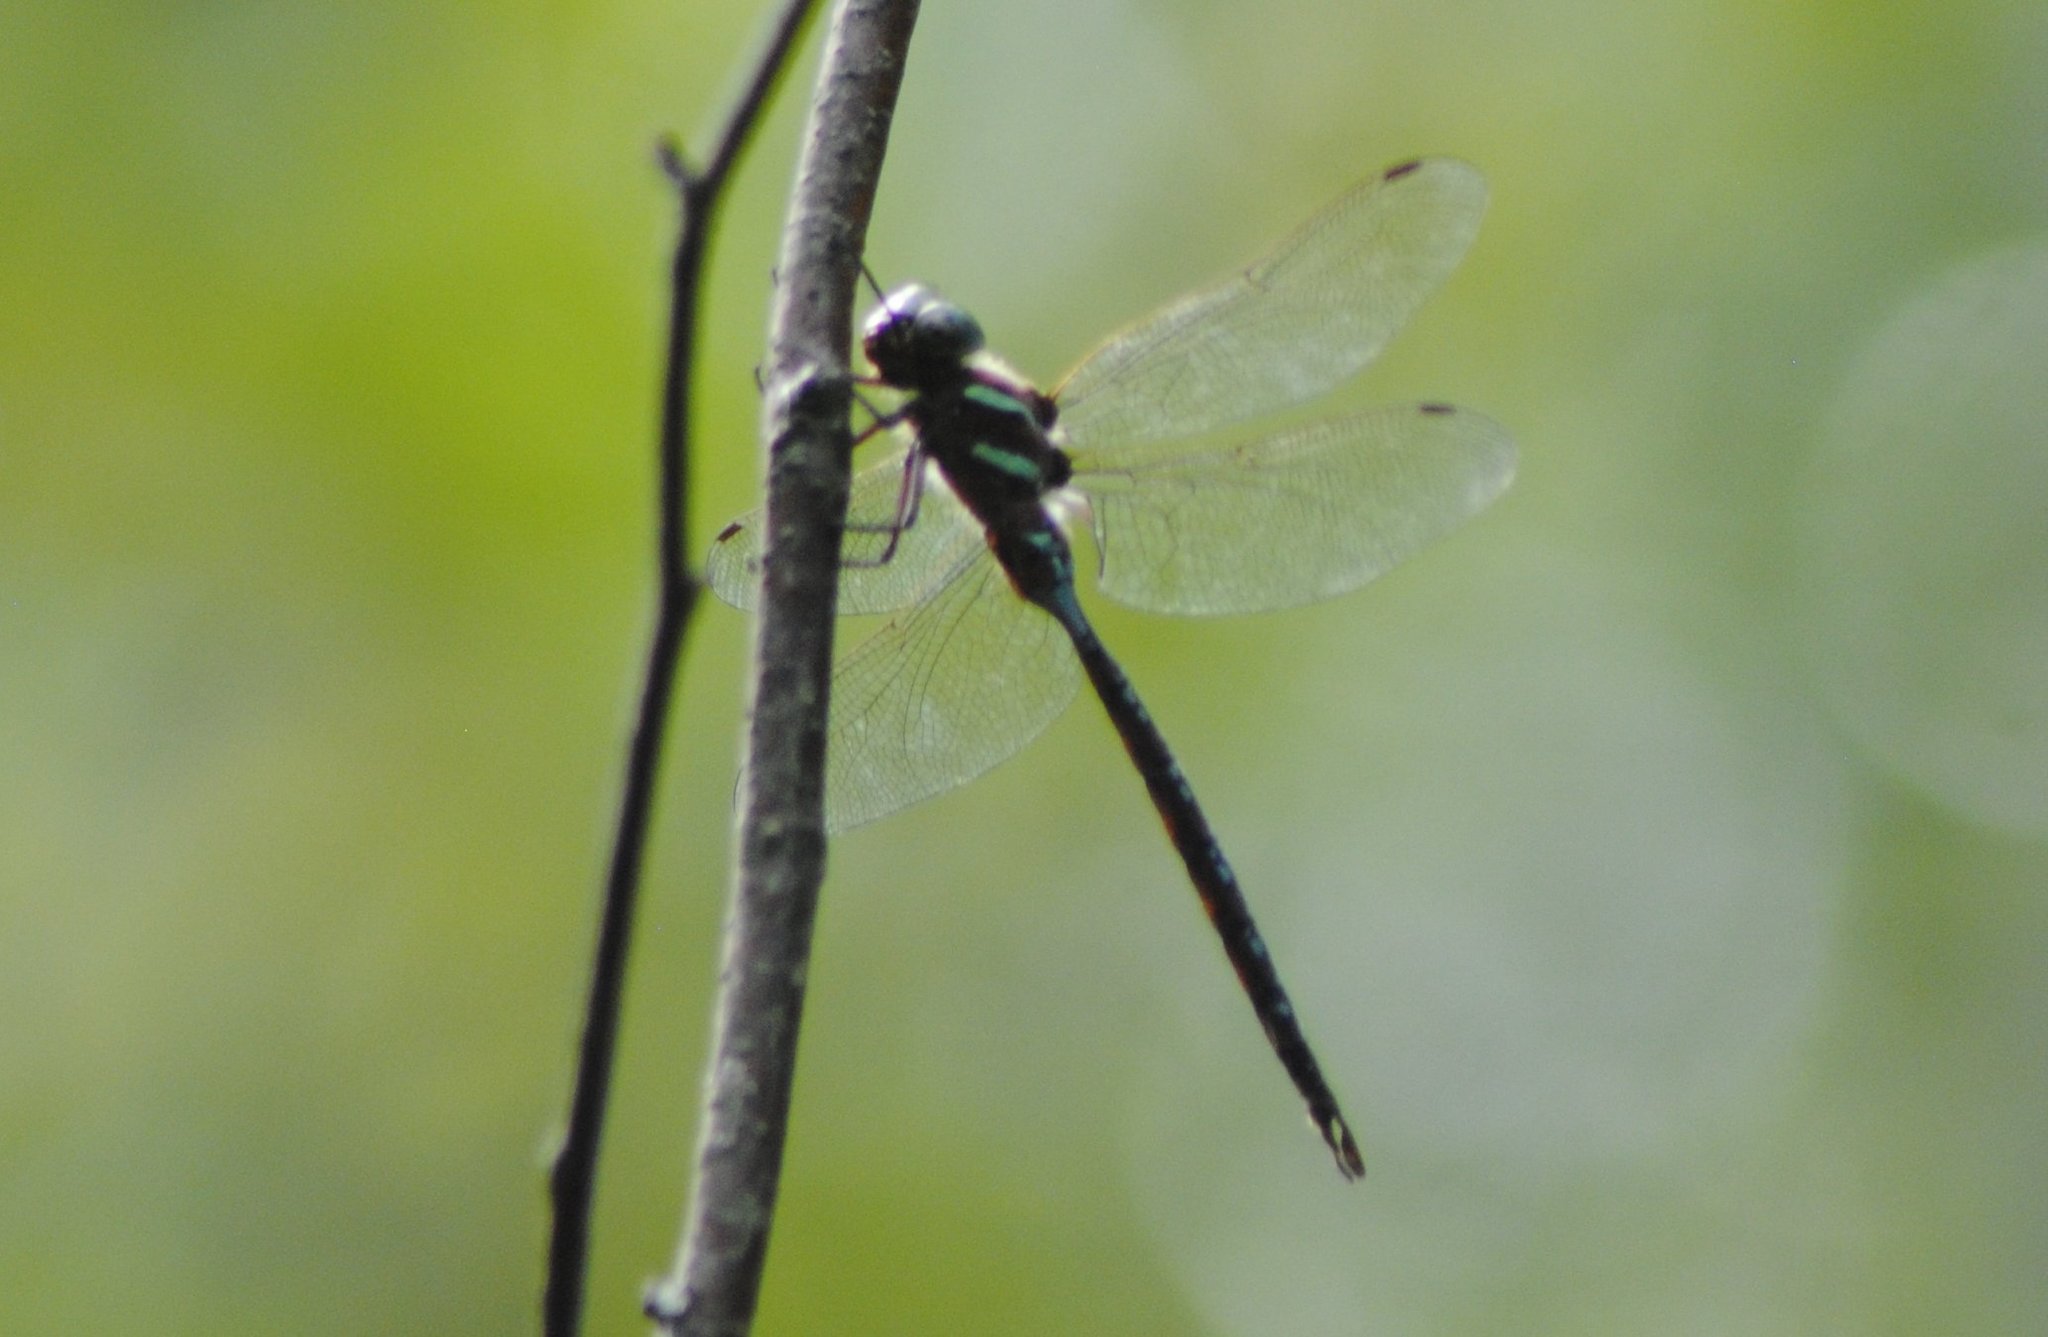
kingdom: Animalia
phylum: Arthropoda
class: Insecta
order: Odonata
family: Aeshnidae
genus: Aeshna
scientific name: Aeshna tuberculifera
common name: Aeschne à tubercules
